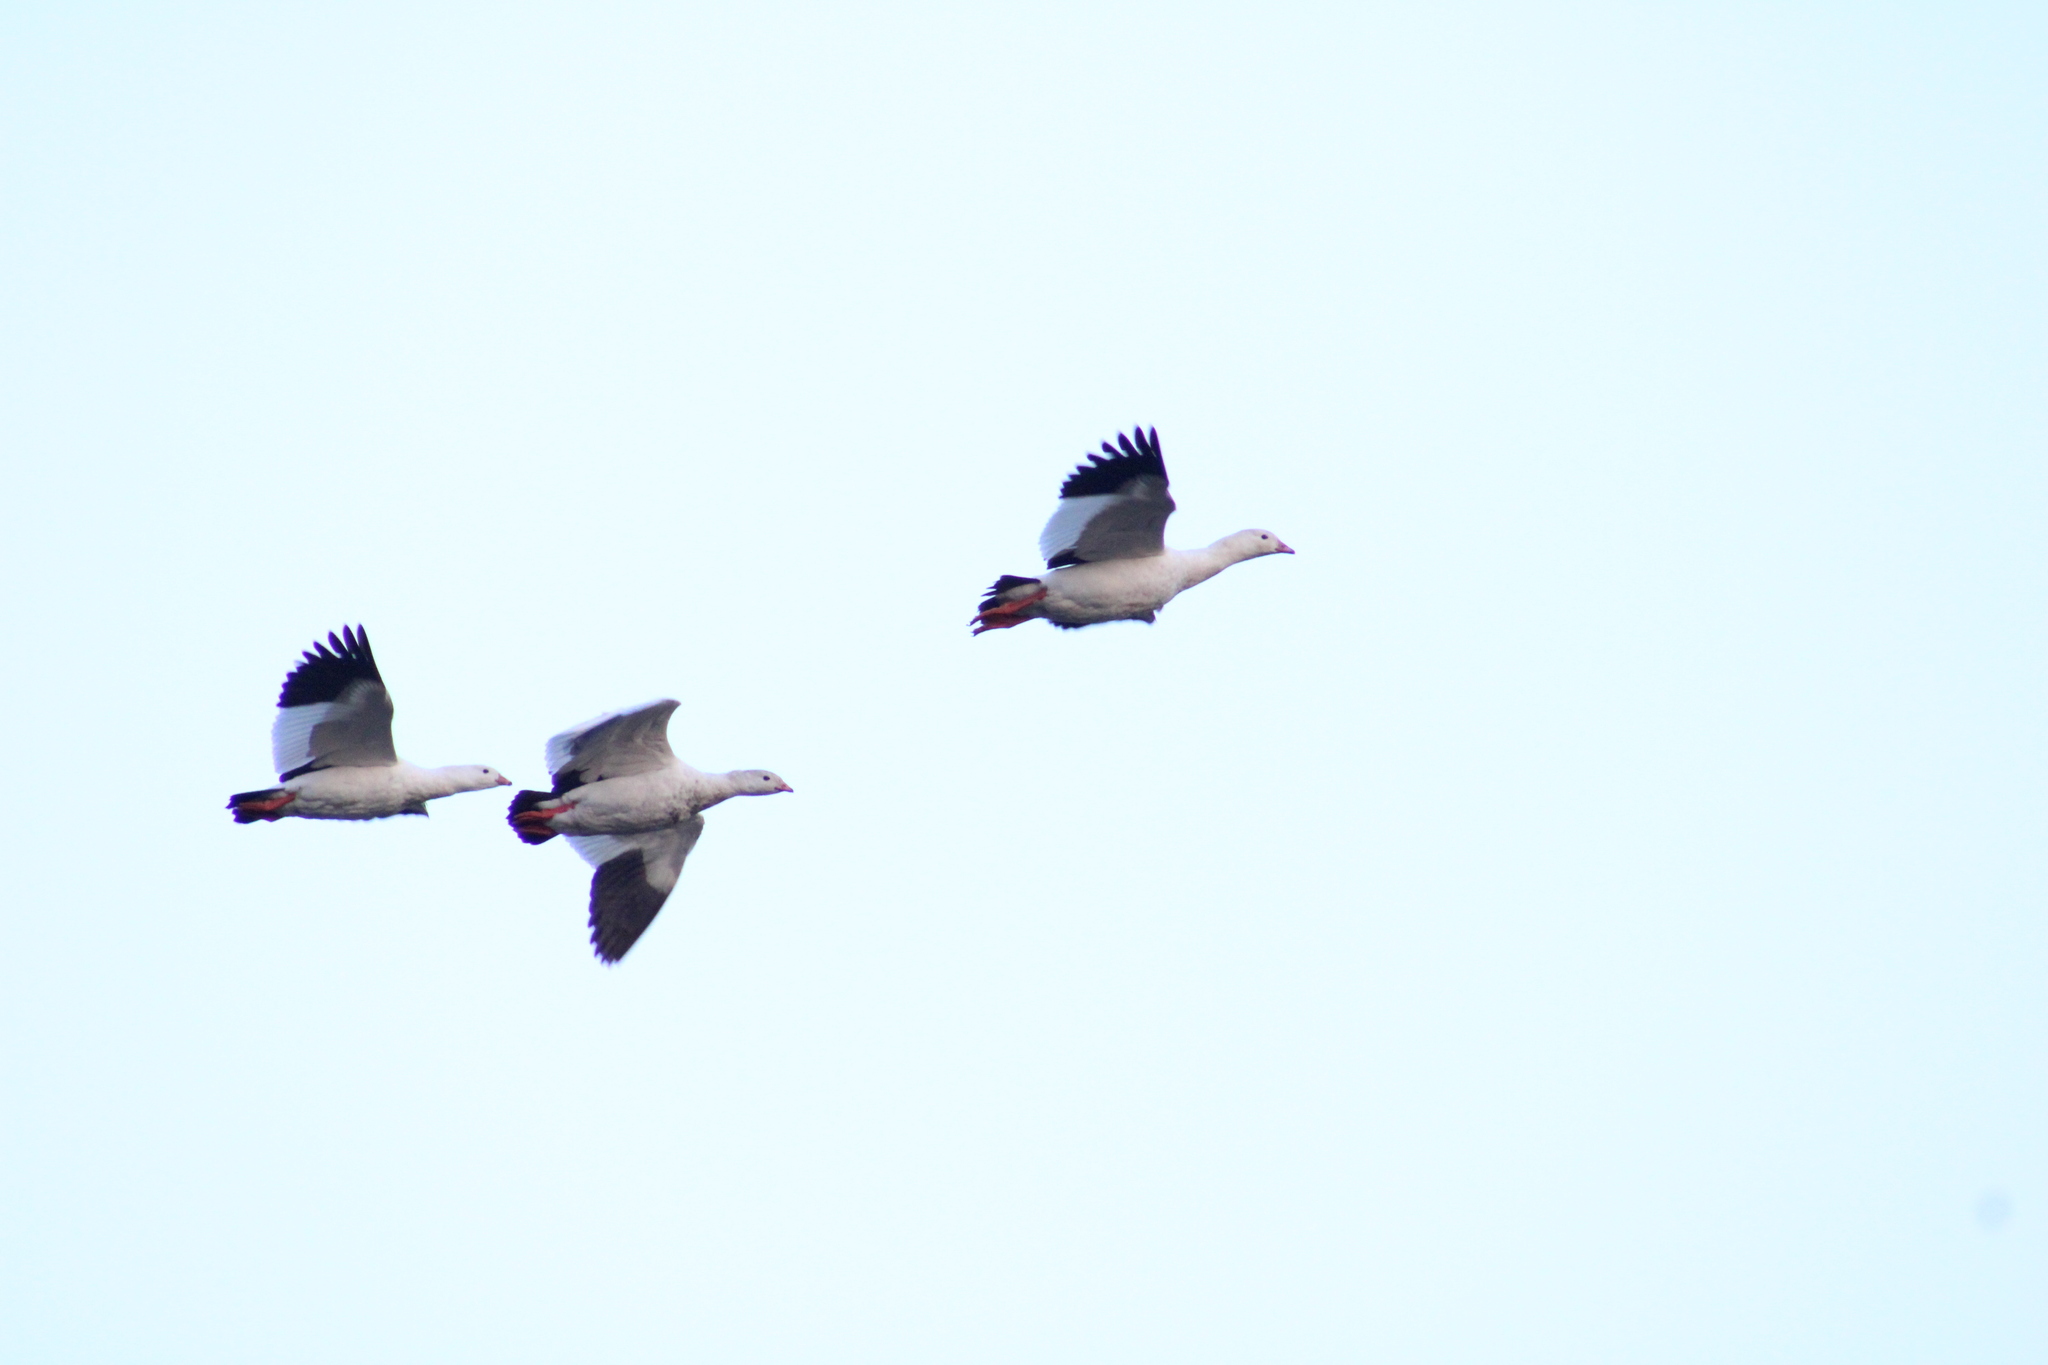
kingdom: Animalia
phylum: Chordata
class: Aves
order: Anseriformes
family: Anatidae
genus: Chloephaga
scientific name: Chloephaga melanoptera
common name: Andean goose
